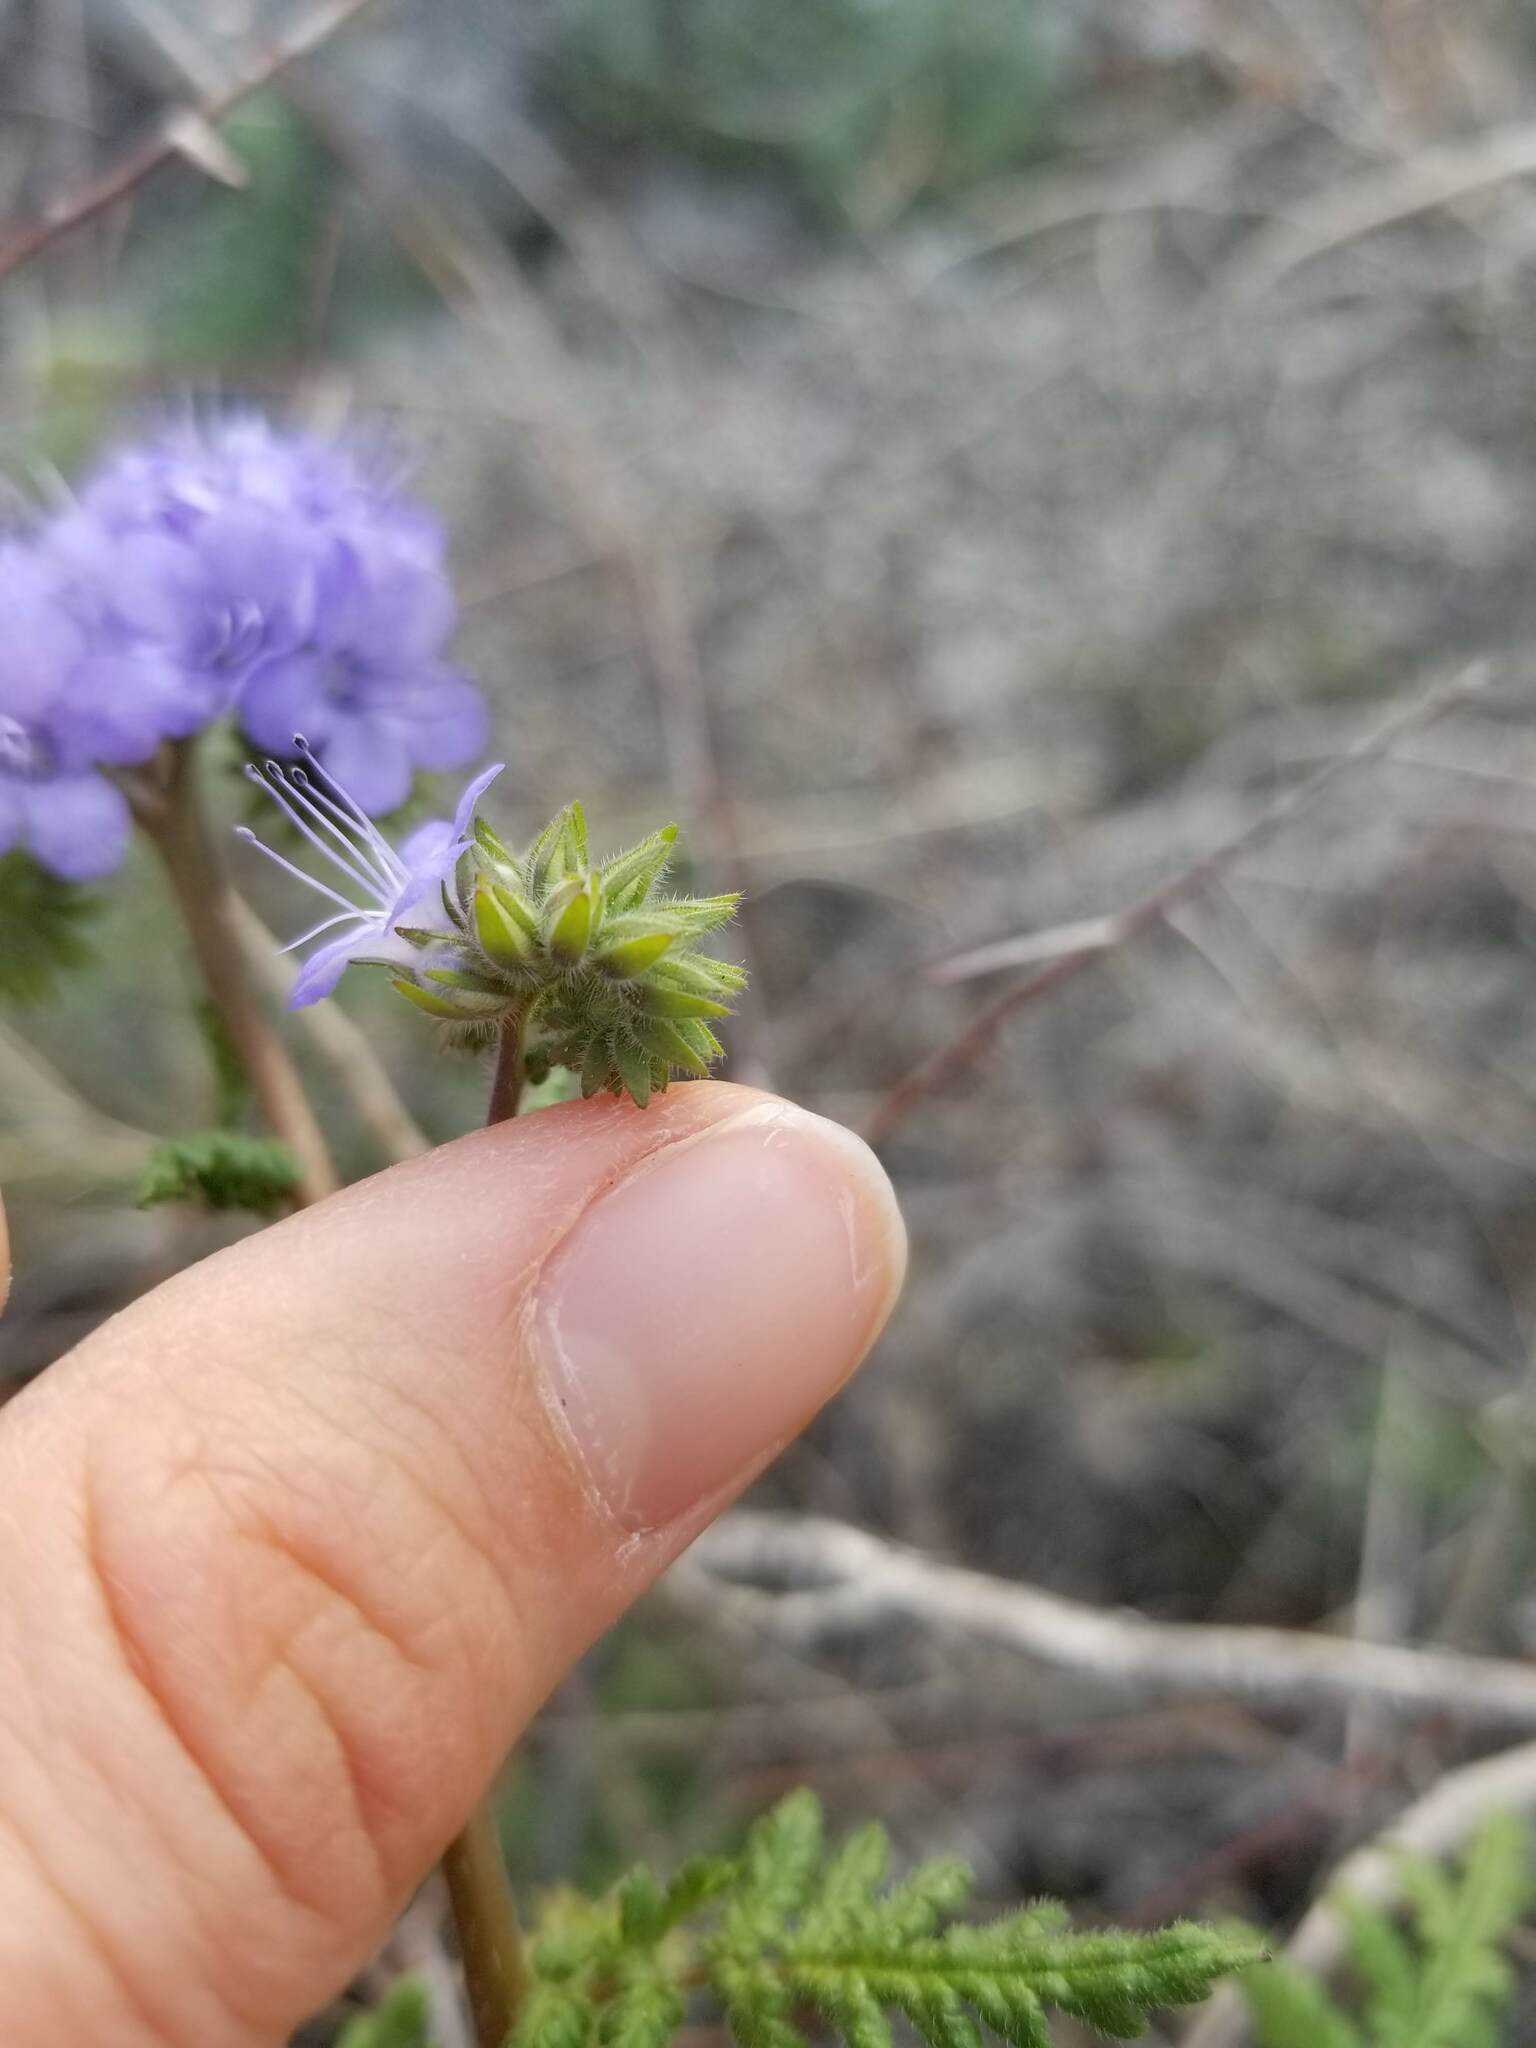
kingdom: Plantae
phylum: Tracheophyta
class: Magnoliopsida
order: Boraginales
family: Hydrophyllaceae
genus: Phacelia
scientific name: Phacelia distans
